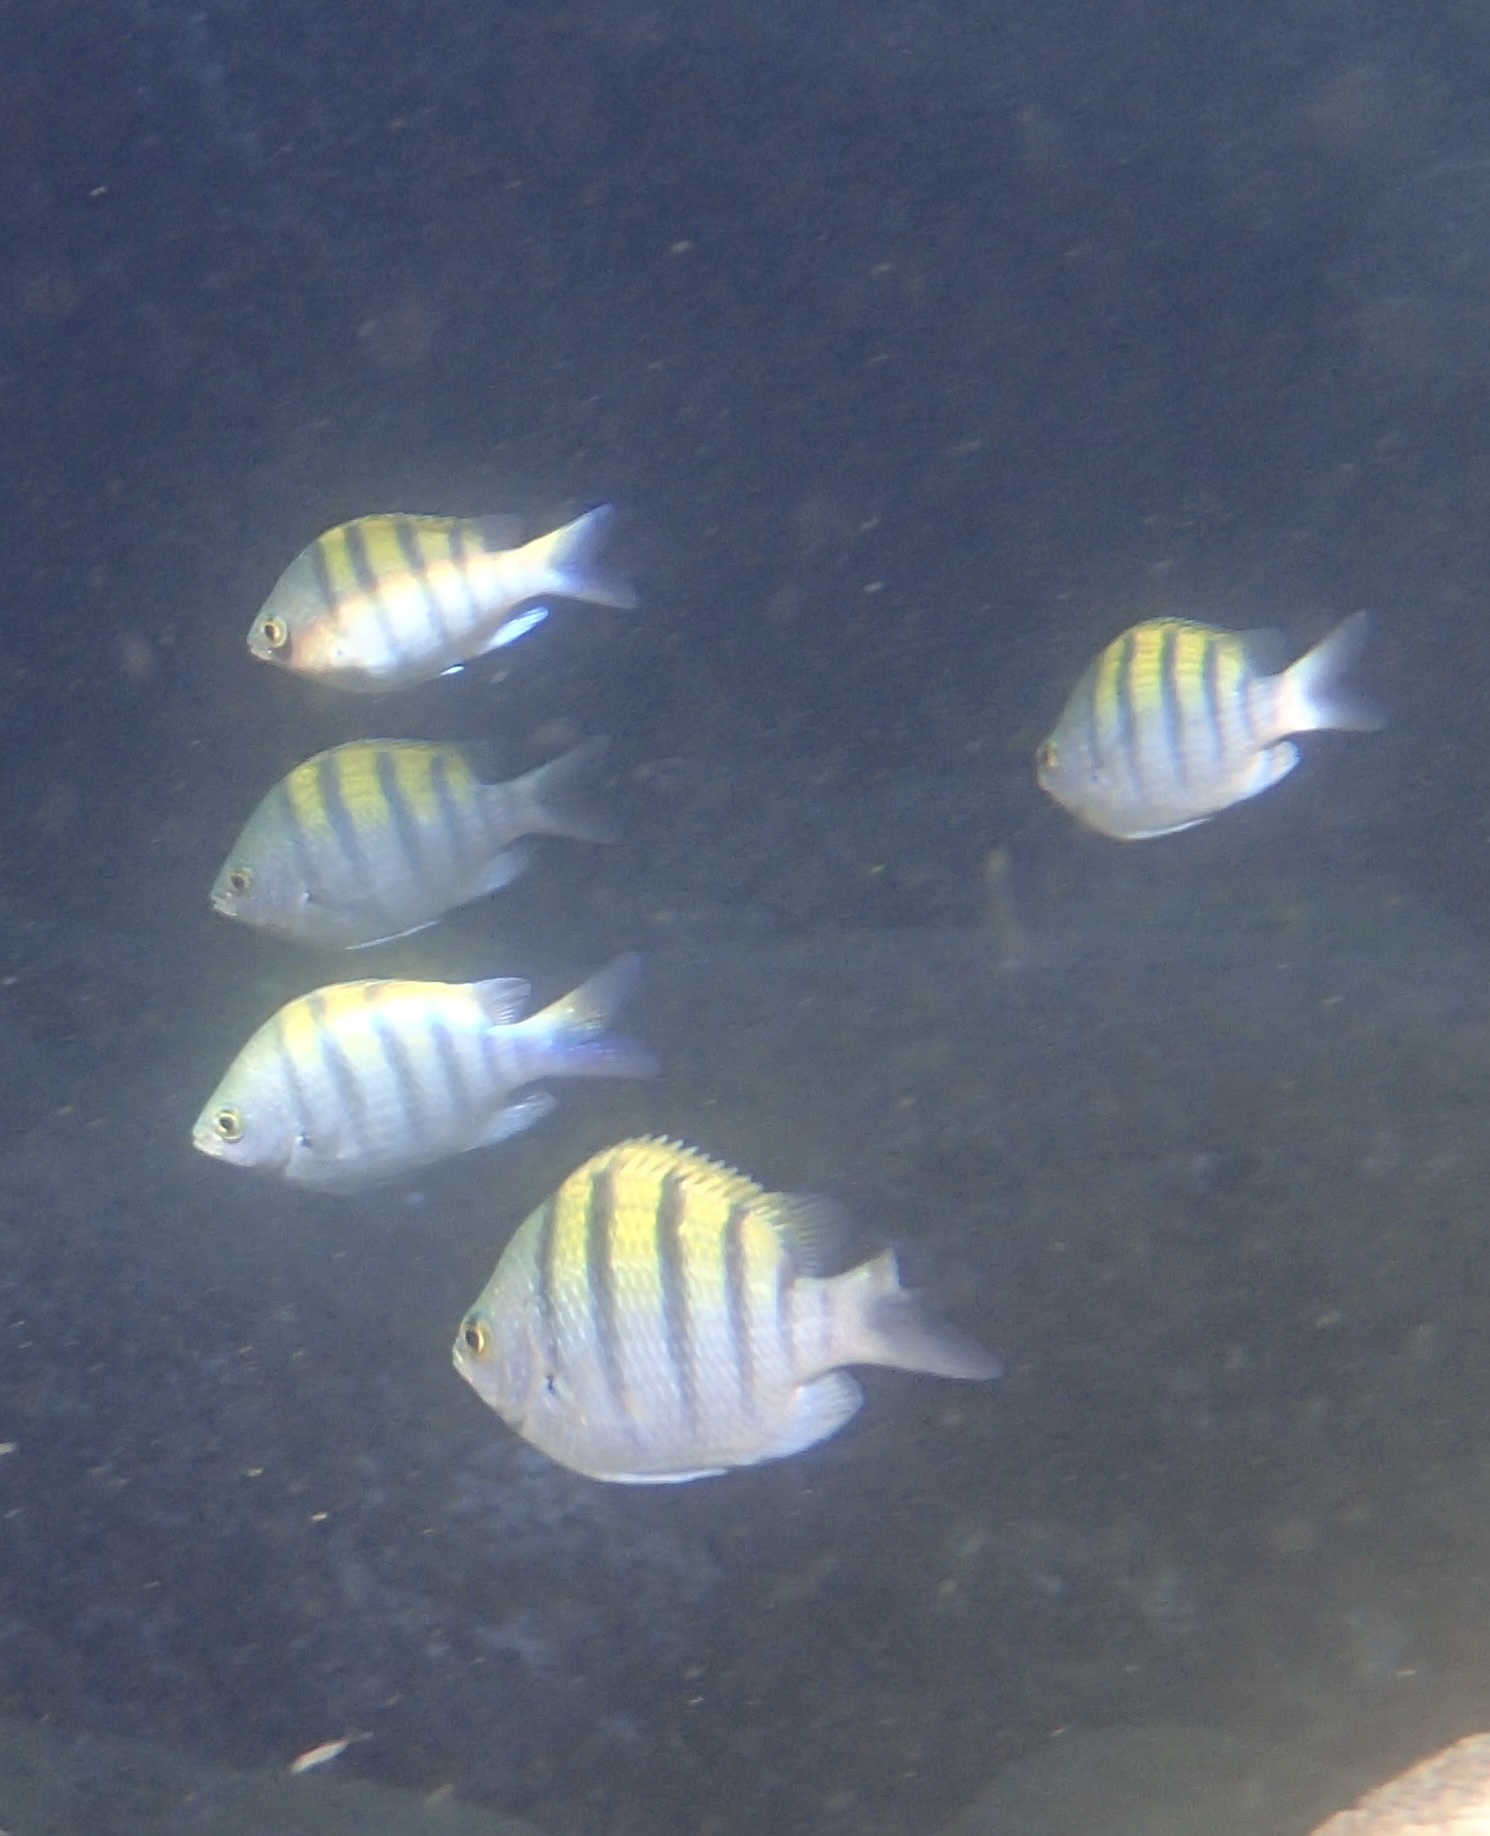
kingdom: Animalia
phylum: Chordata
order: Perciformes
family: Pomacentridae
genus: Abudefduf
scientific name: Abudefduf troschelii
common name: Panamic sergeant major
